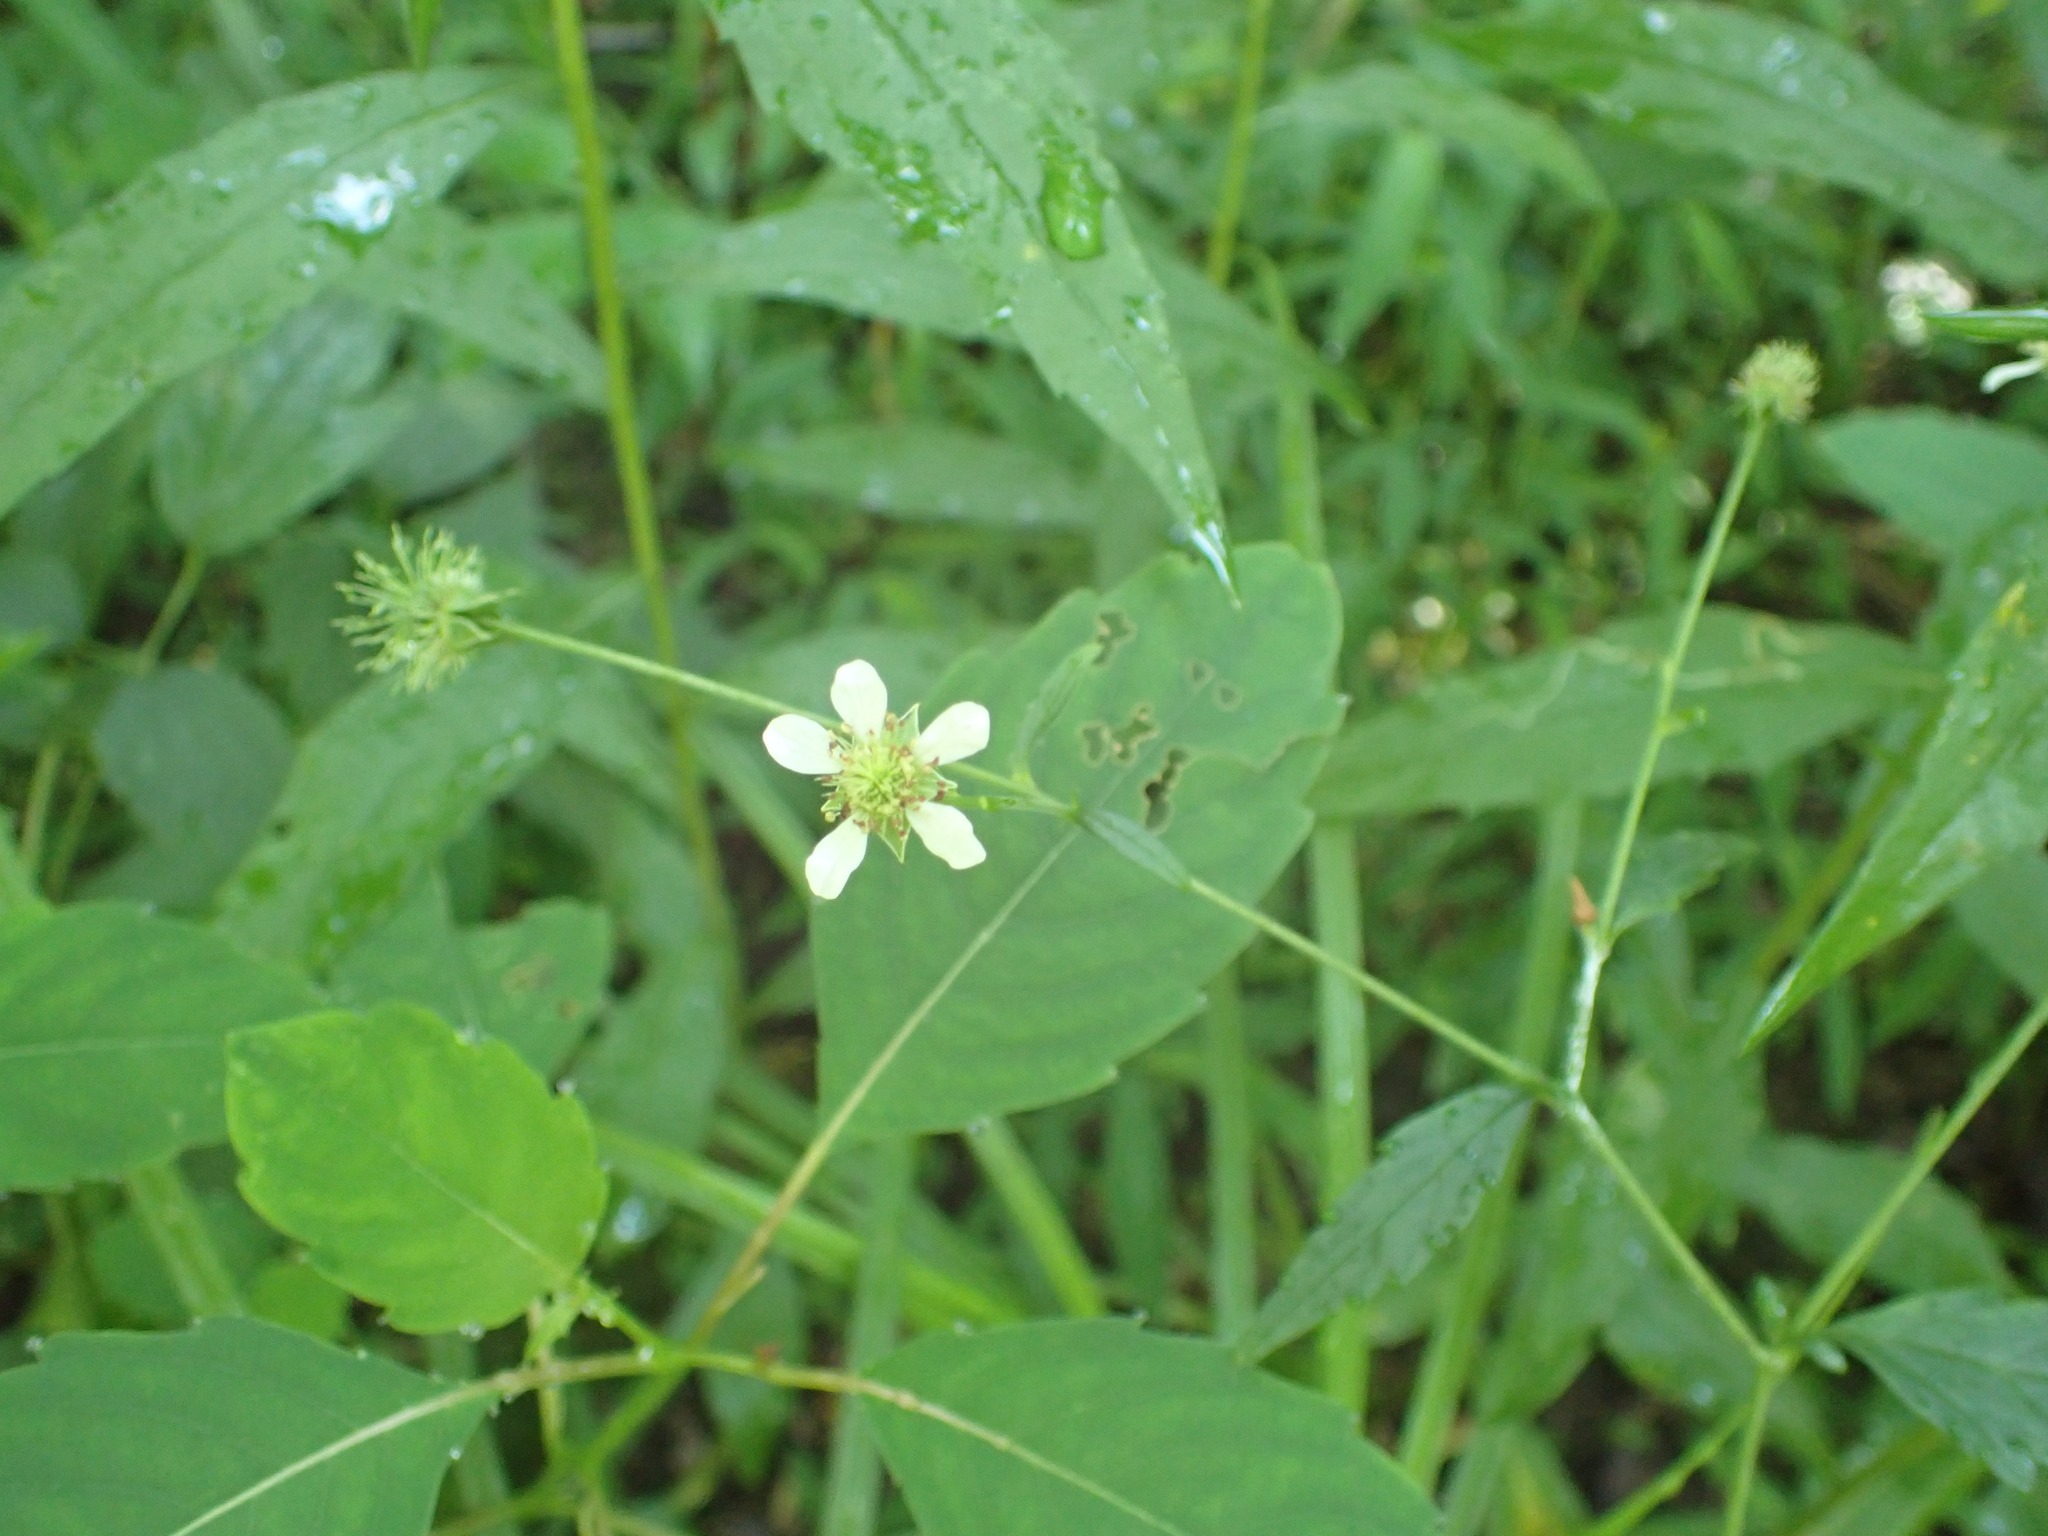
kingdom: Plantae
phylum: Tracheophyta
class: Magnoliopsida
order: Rosales
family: Rosaceae
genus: Geum
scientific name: Geum canadense
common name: White avens
